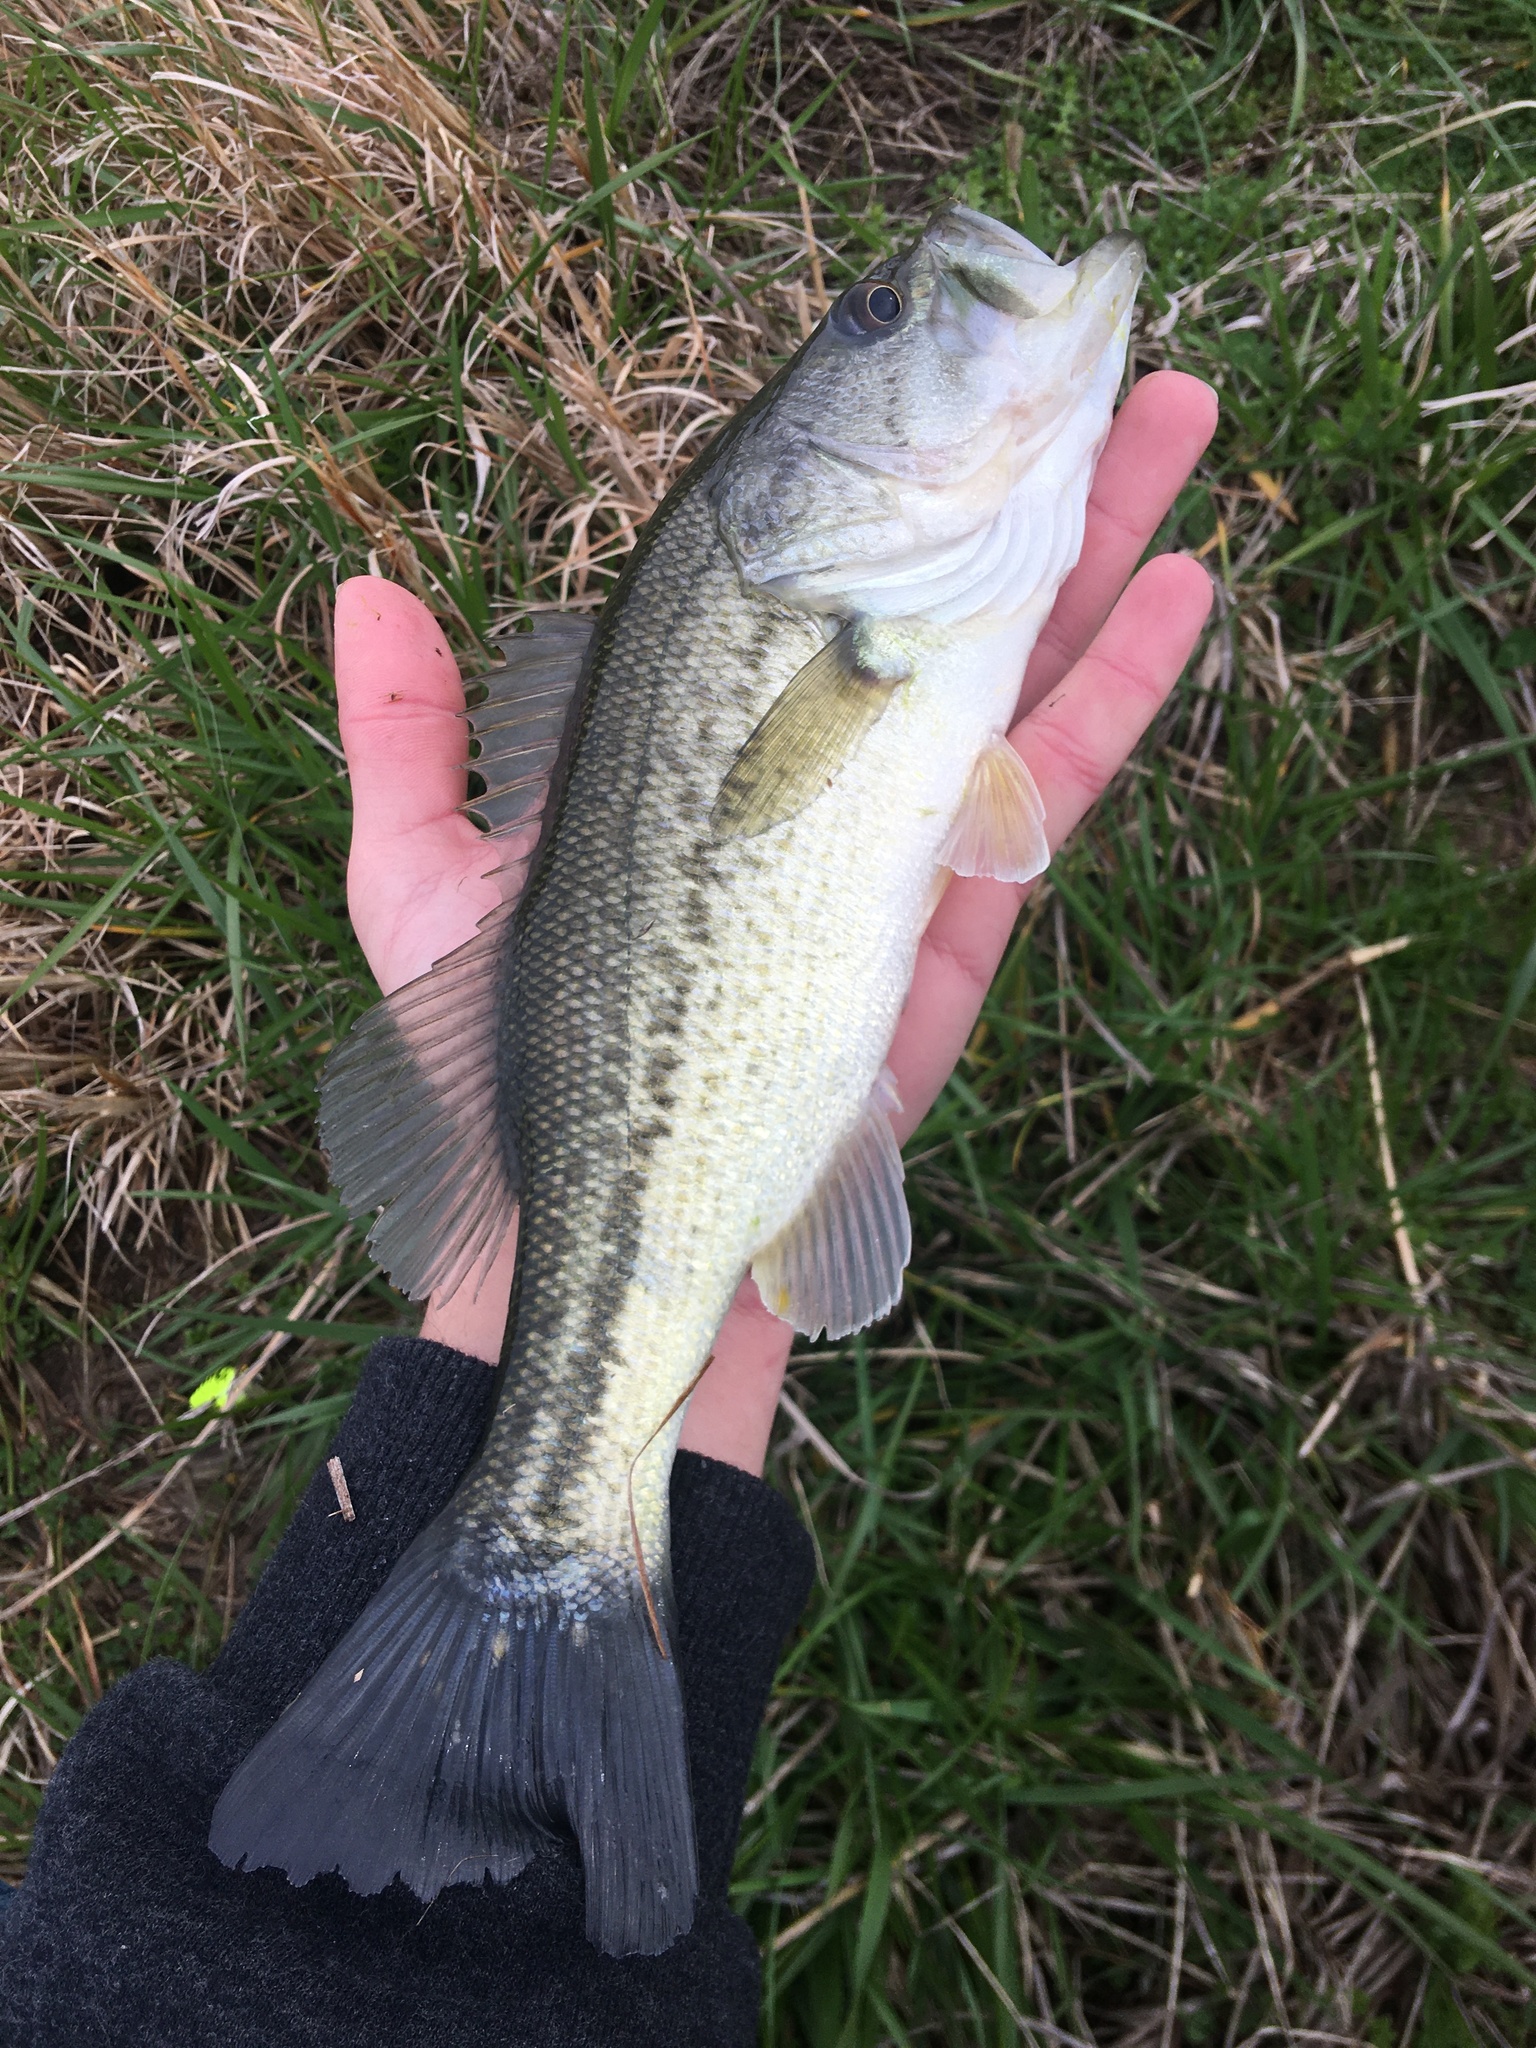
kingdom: Animalia
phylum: Chordata
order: Perciformes
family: Centrarchidae
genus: Micropterus
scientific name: Micropterus
